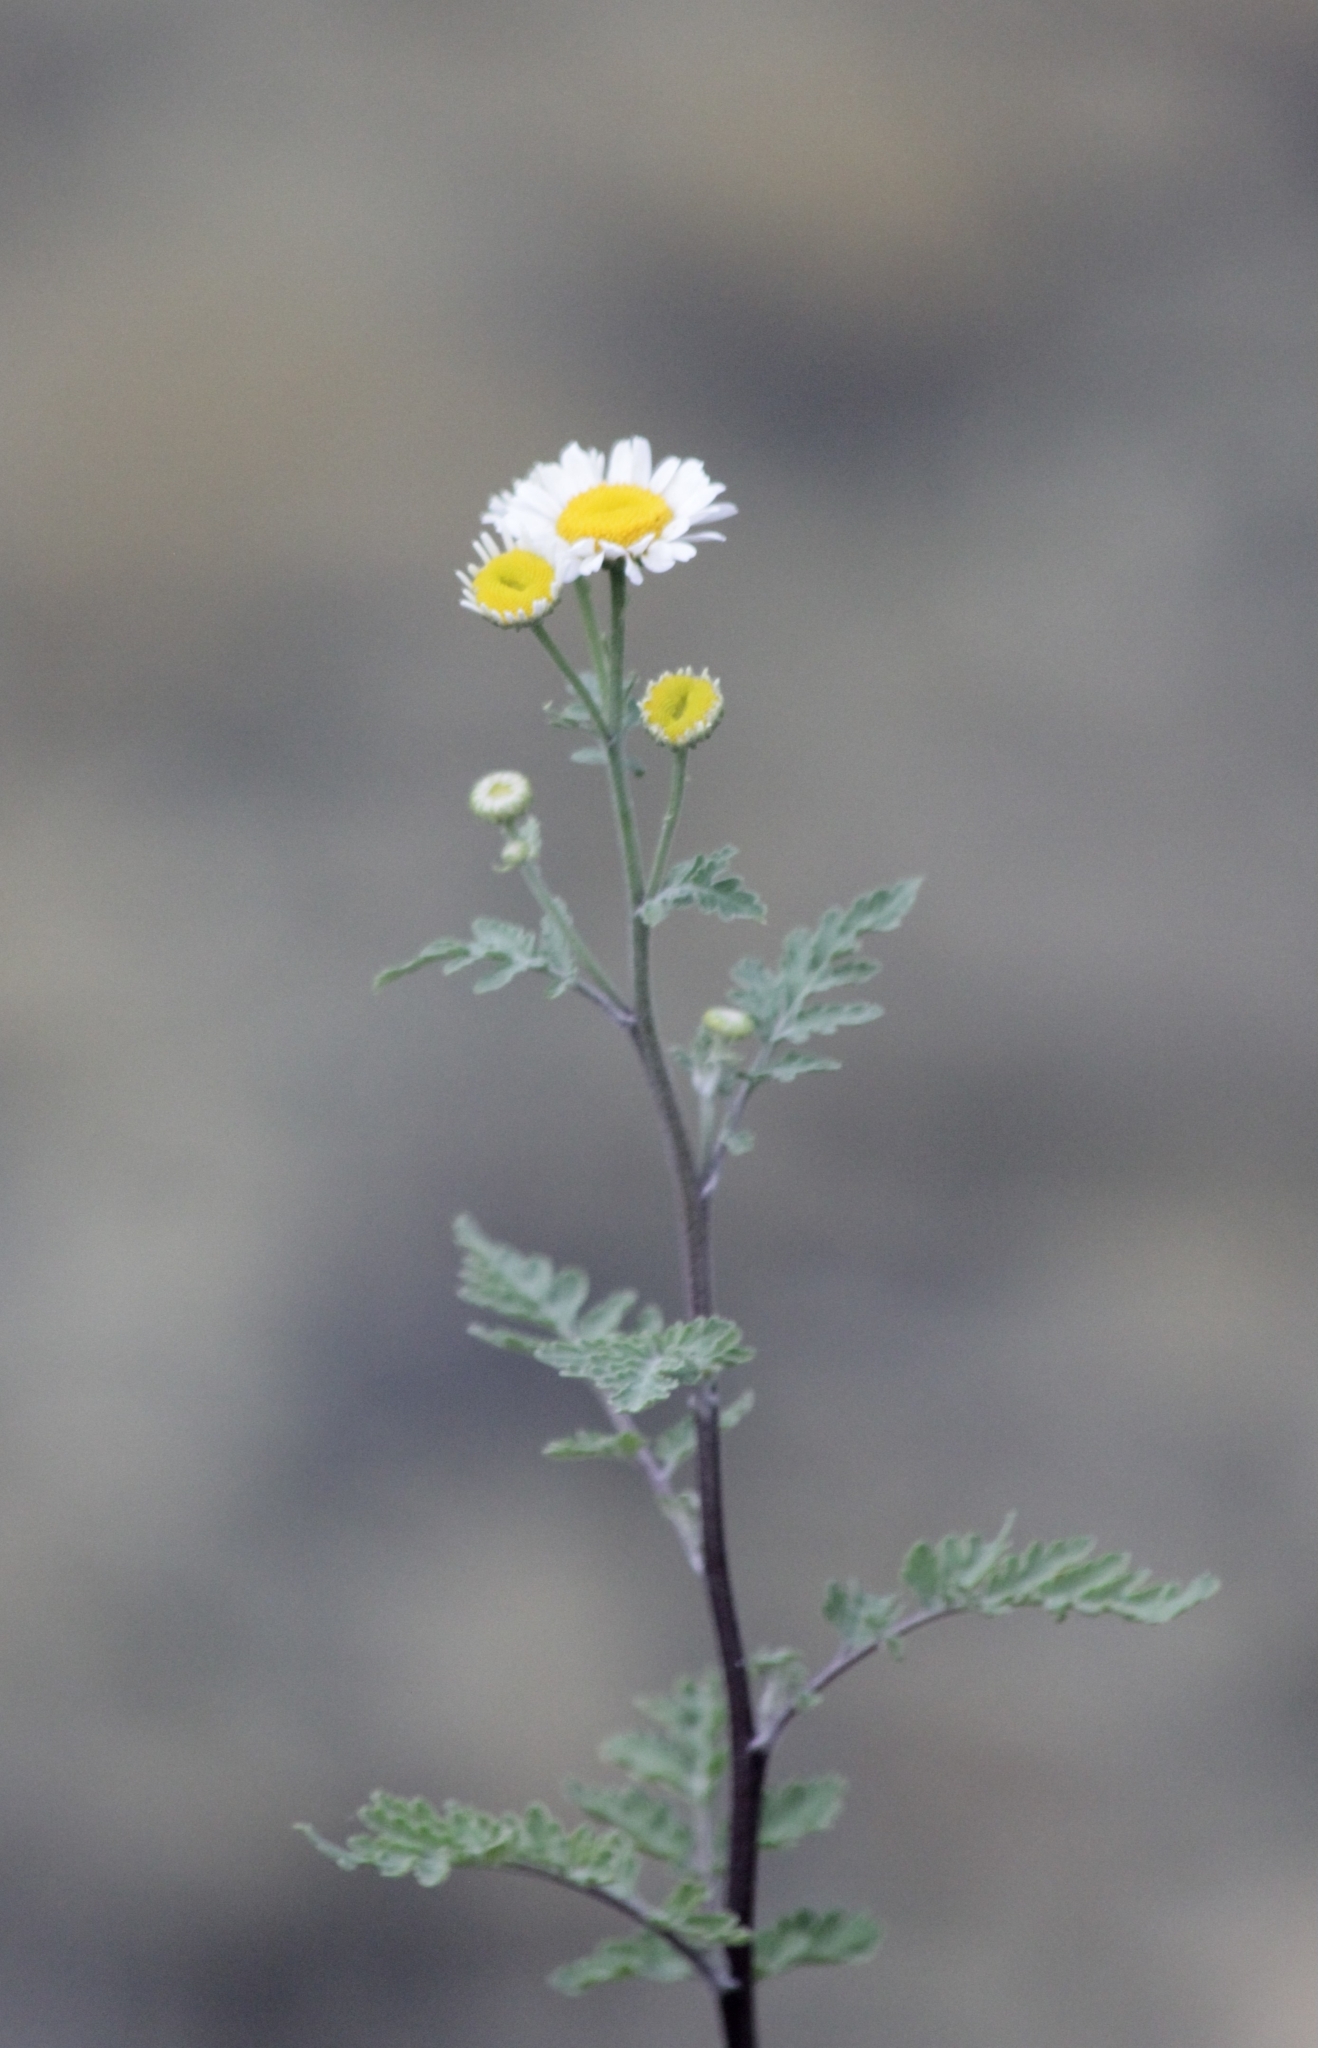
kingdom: Plantae
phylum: Tracheophyta
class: Magnoliopsida
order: Asterales
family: Asteraceae
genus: Tanacetum
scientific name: Tanacetum partheniifolium
